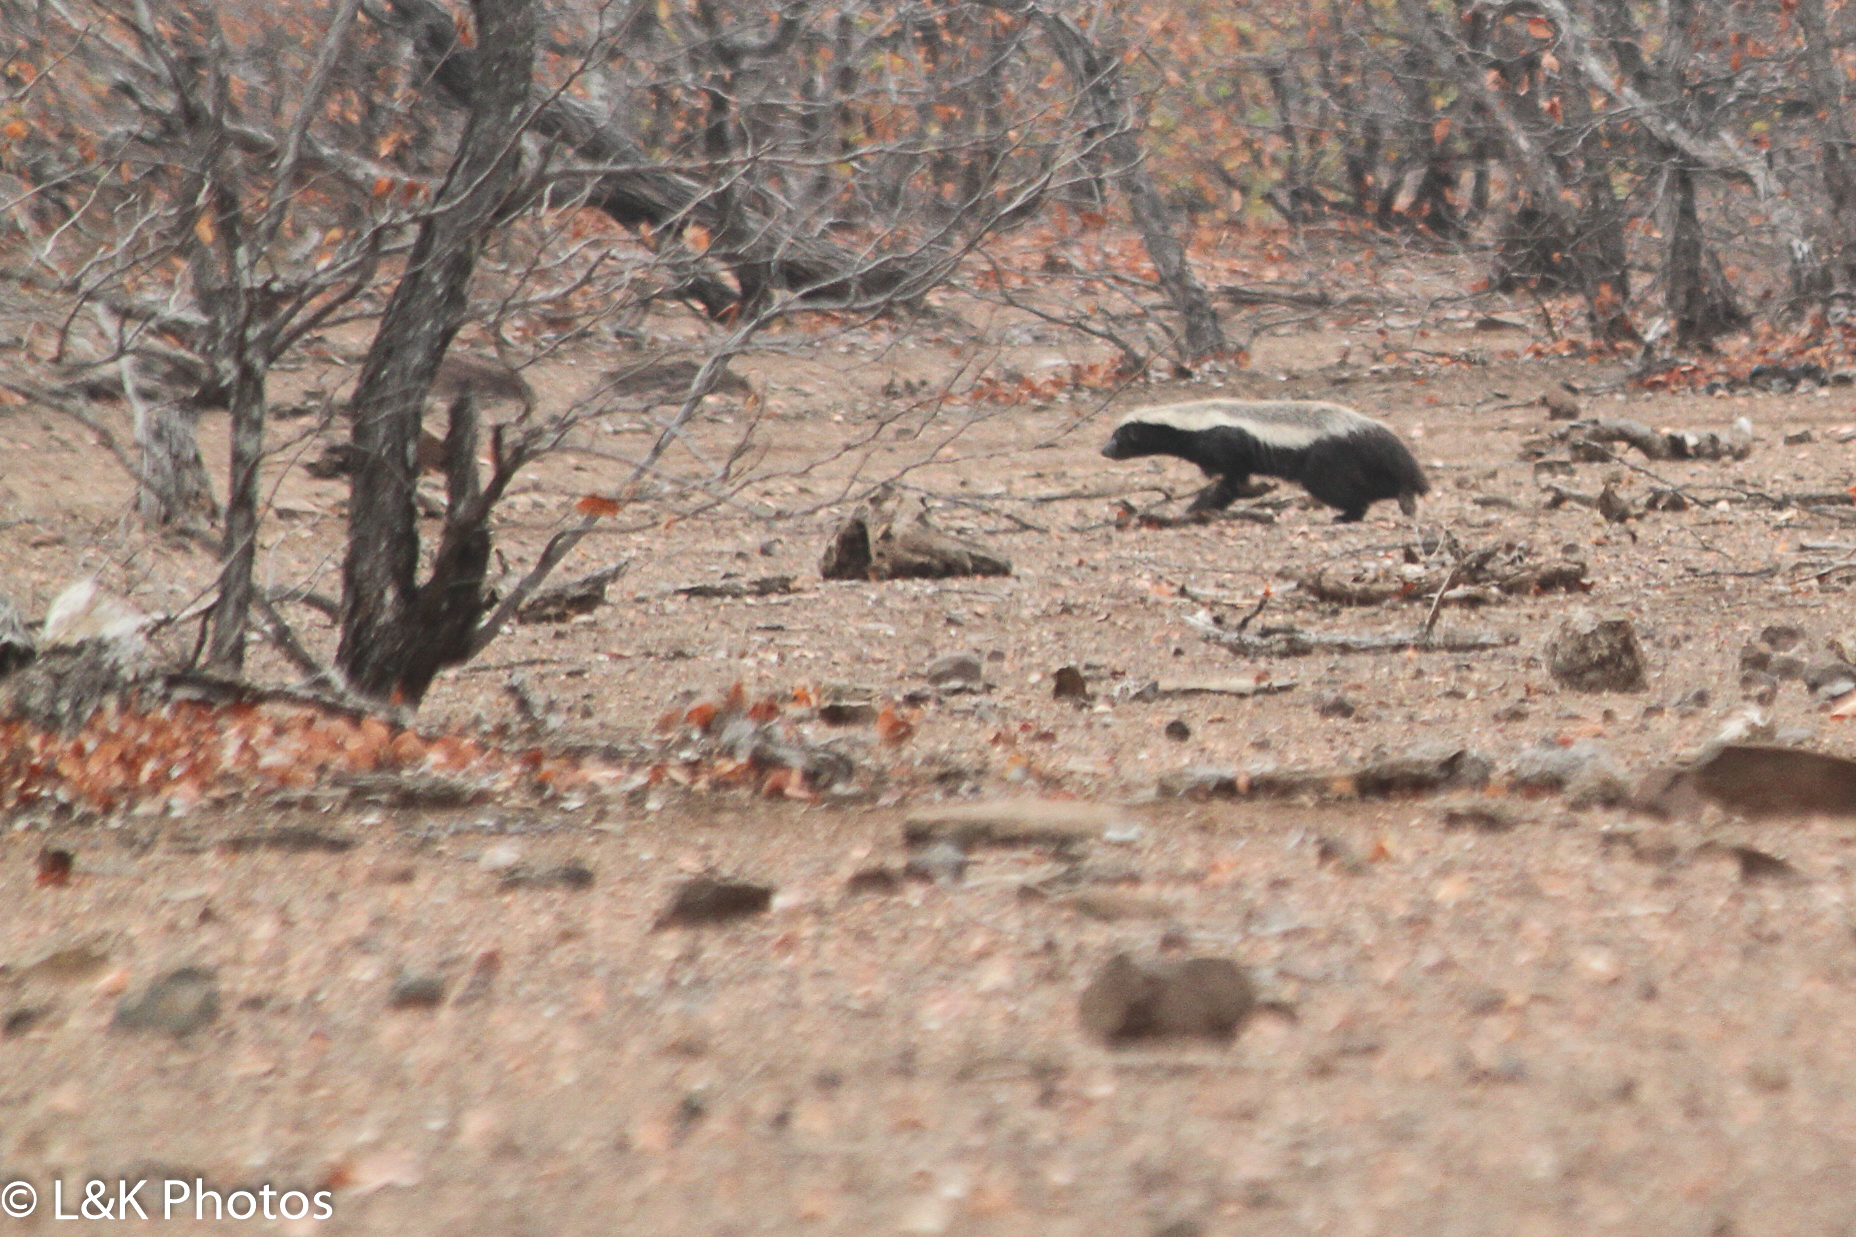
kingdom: Animalia
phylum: Chordata
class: Mammalia
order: Carnivora
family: Mustelidae
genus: Mellivora
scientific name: Mellivora capensis
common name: Honey badger
